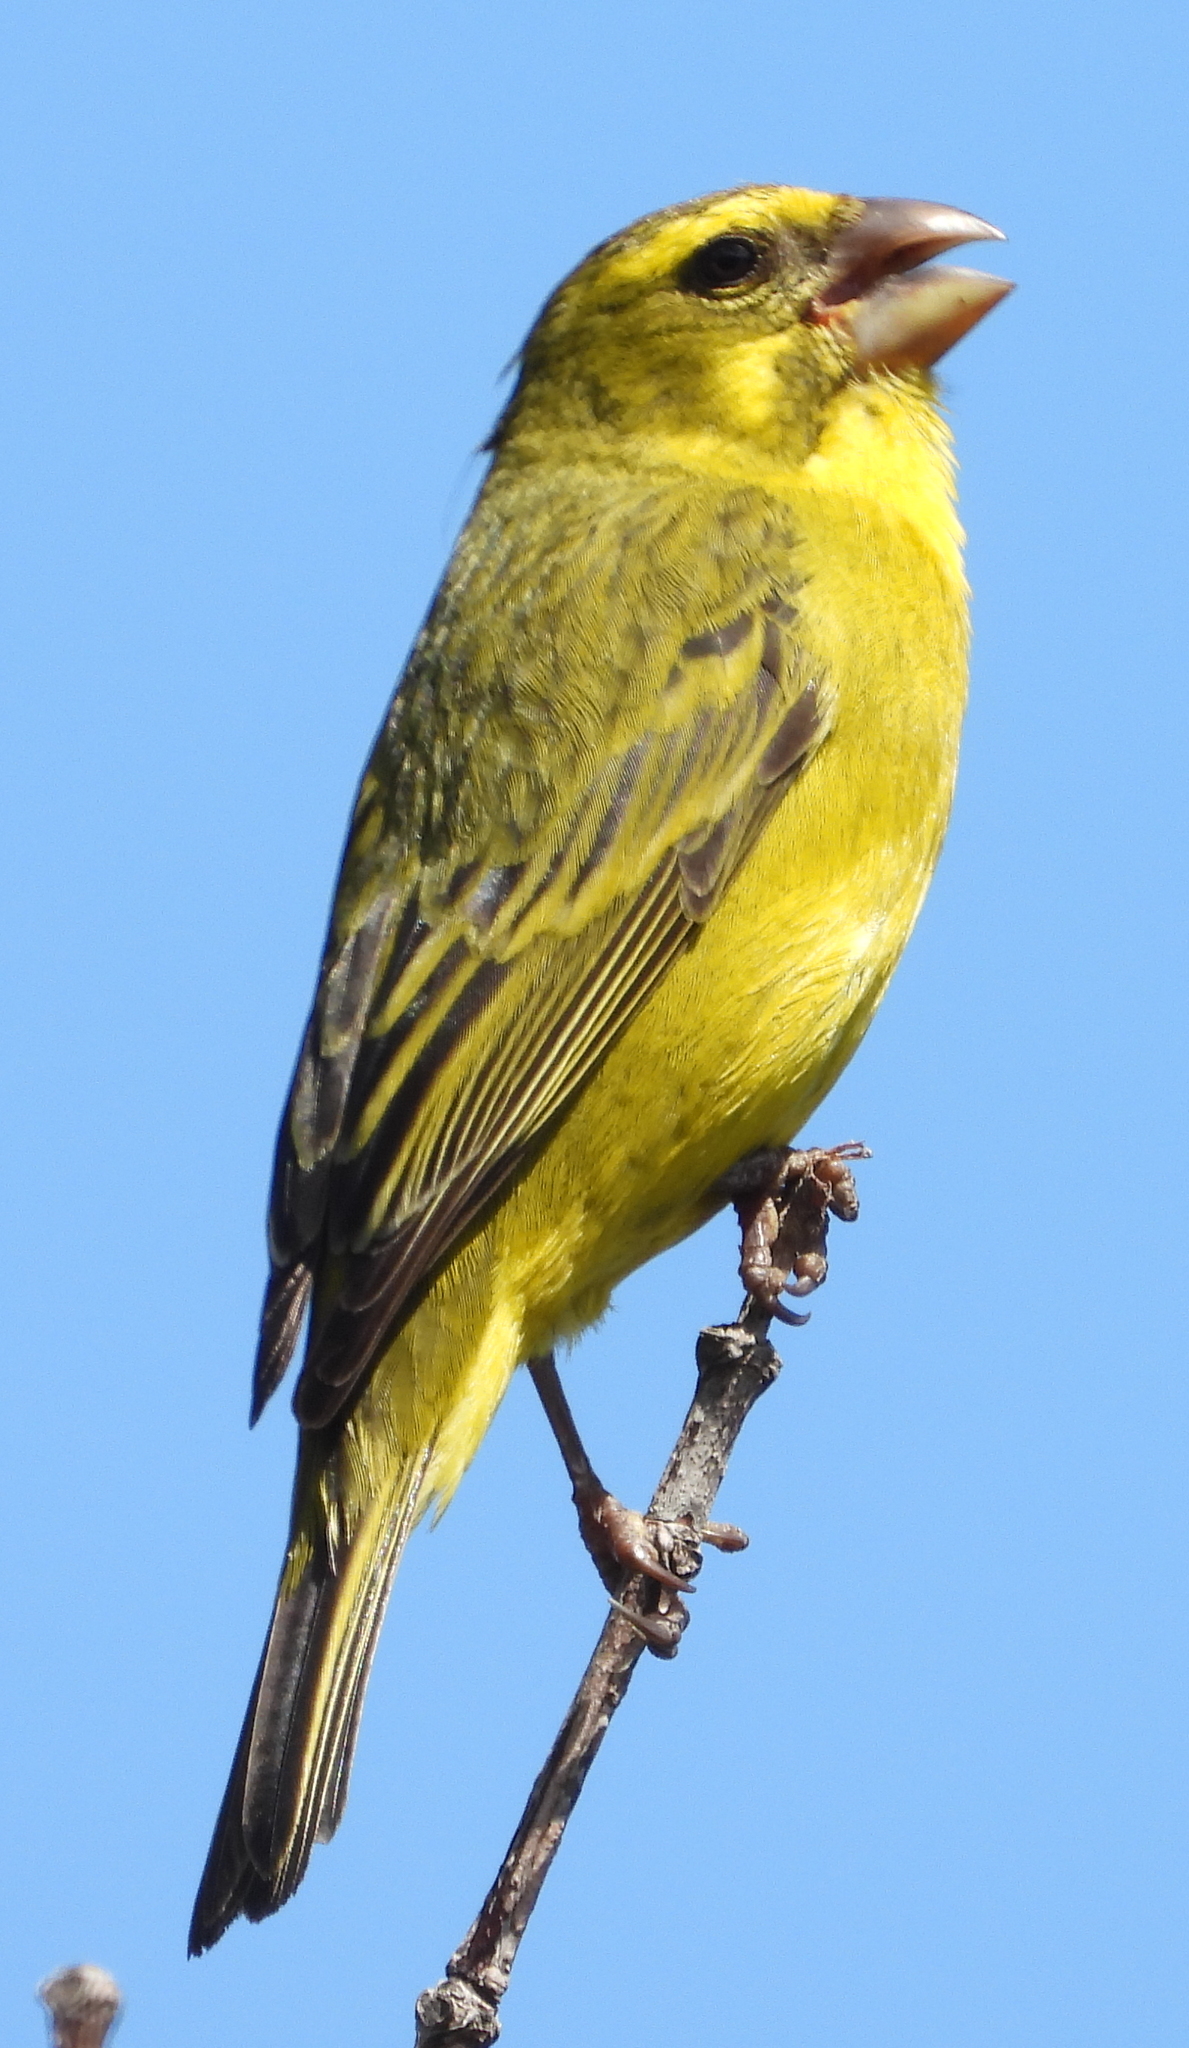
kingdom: Animalia
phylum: Chordata
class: Aves
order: Passeriformes
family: Fringillidae
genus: Crithagra
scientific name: Crithagra sulphurata
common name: Brimstone canary
